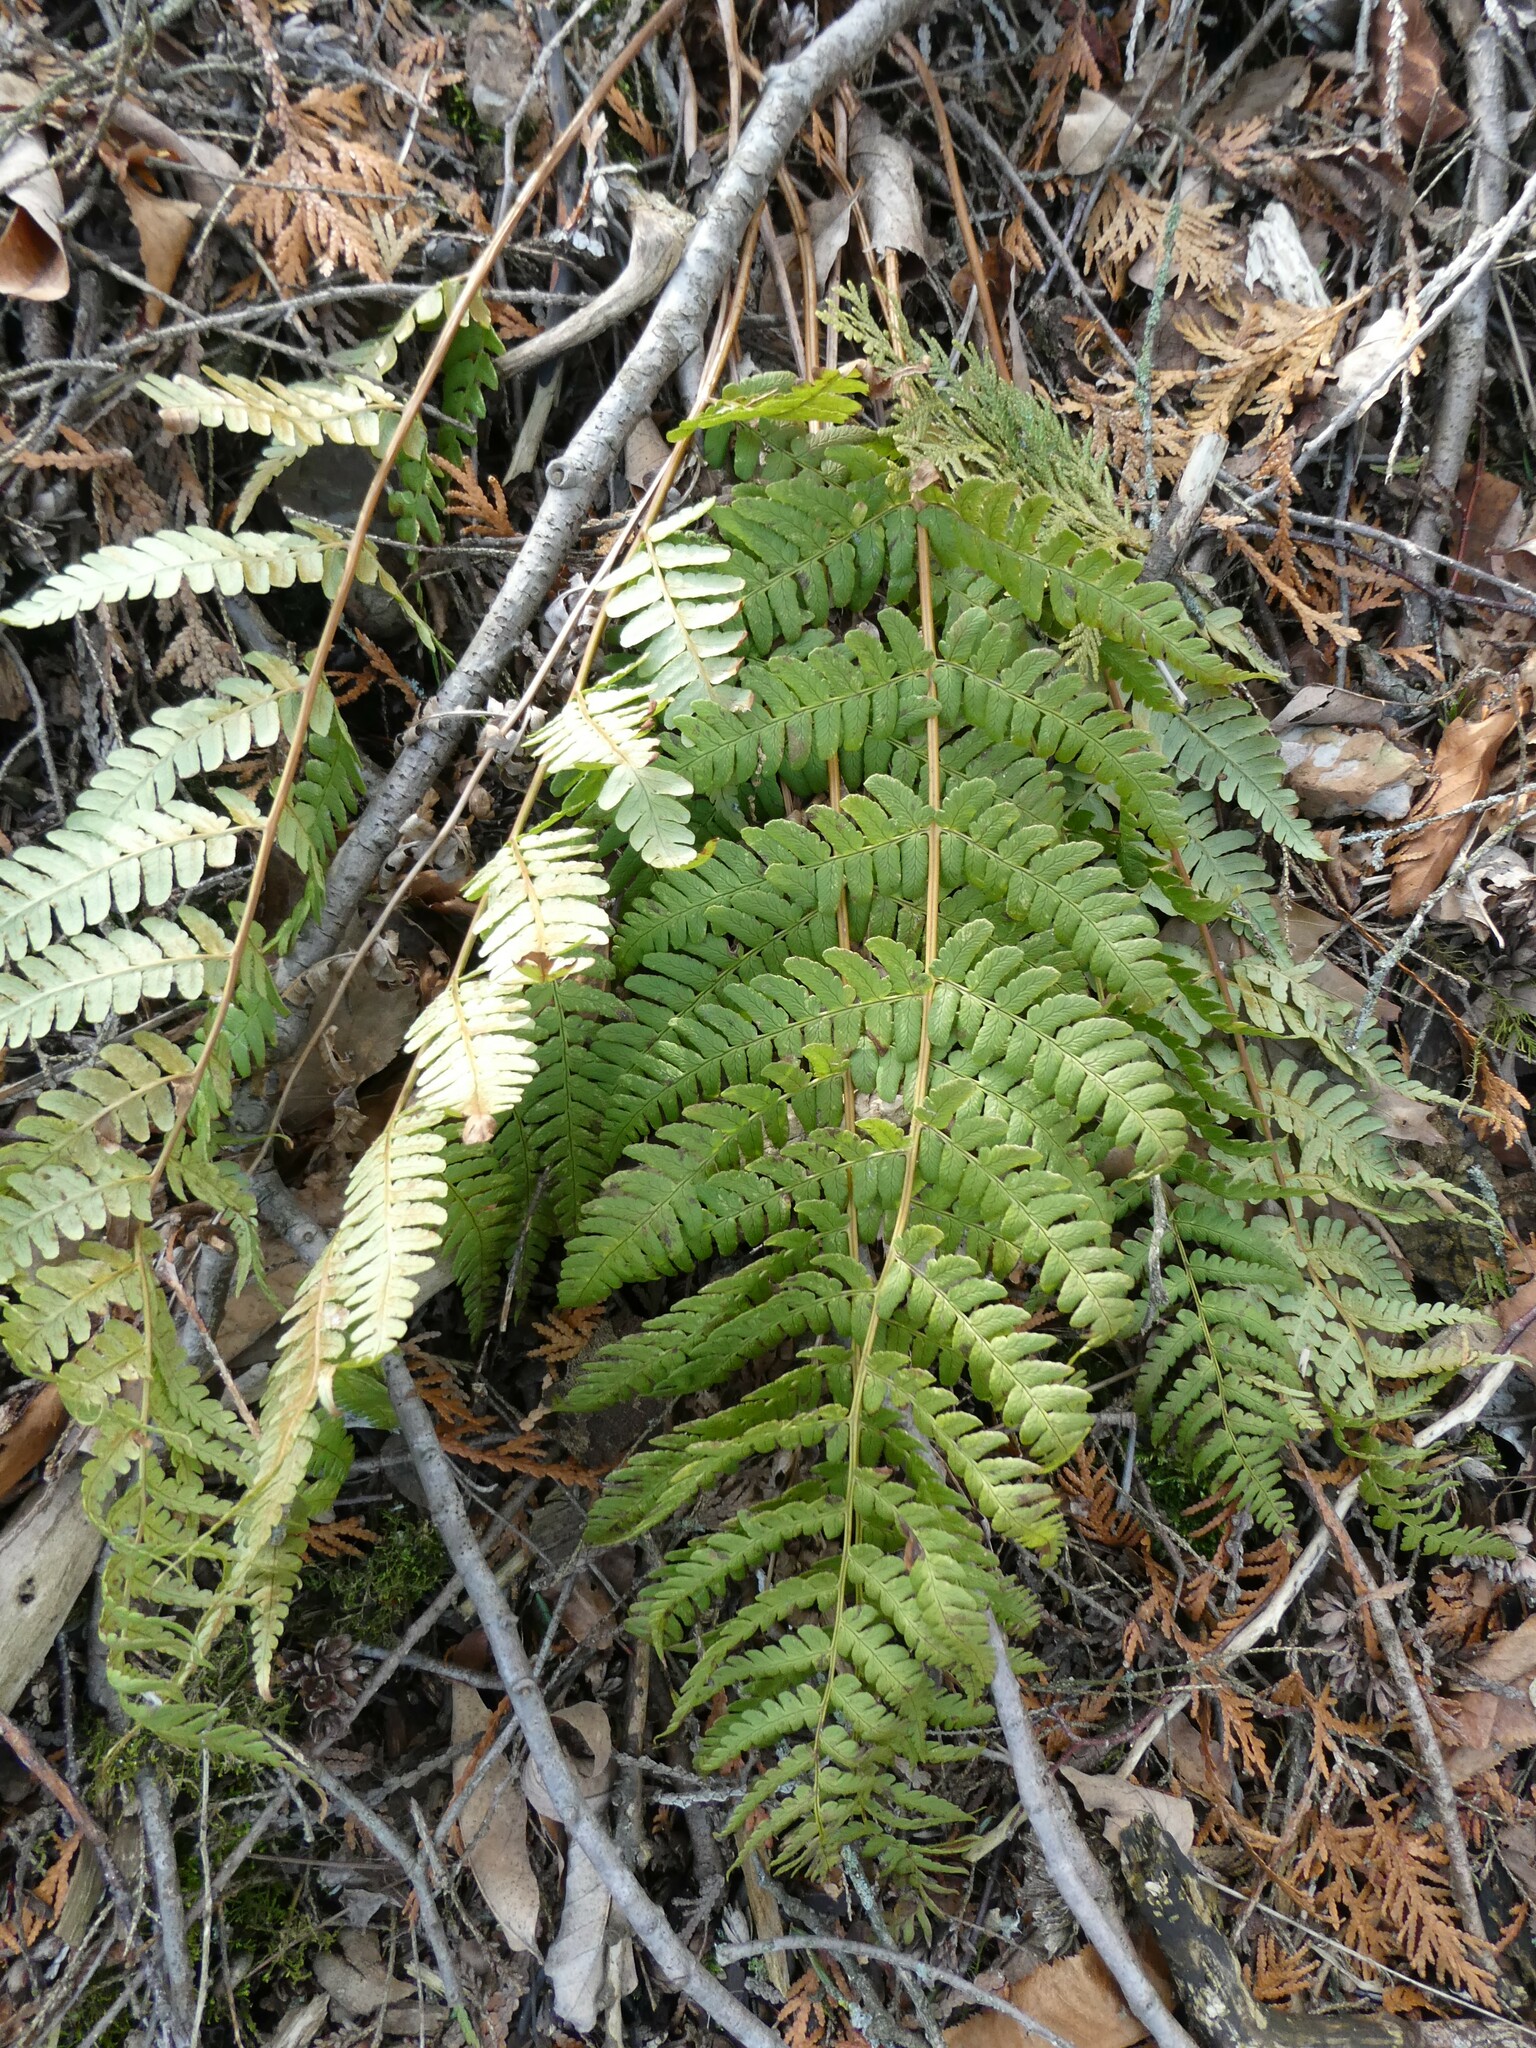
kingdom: Plantae
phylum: Tracheophyta
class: Polypodiopsida
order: Polypodiales
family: Dryopteridaceae
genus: Dryopteris
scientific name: Dryopteris marginalis
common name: Marginal wood fern
